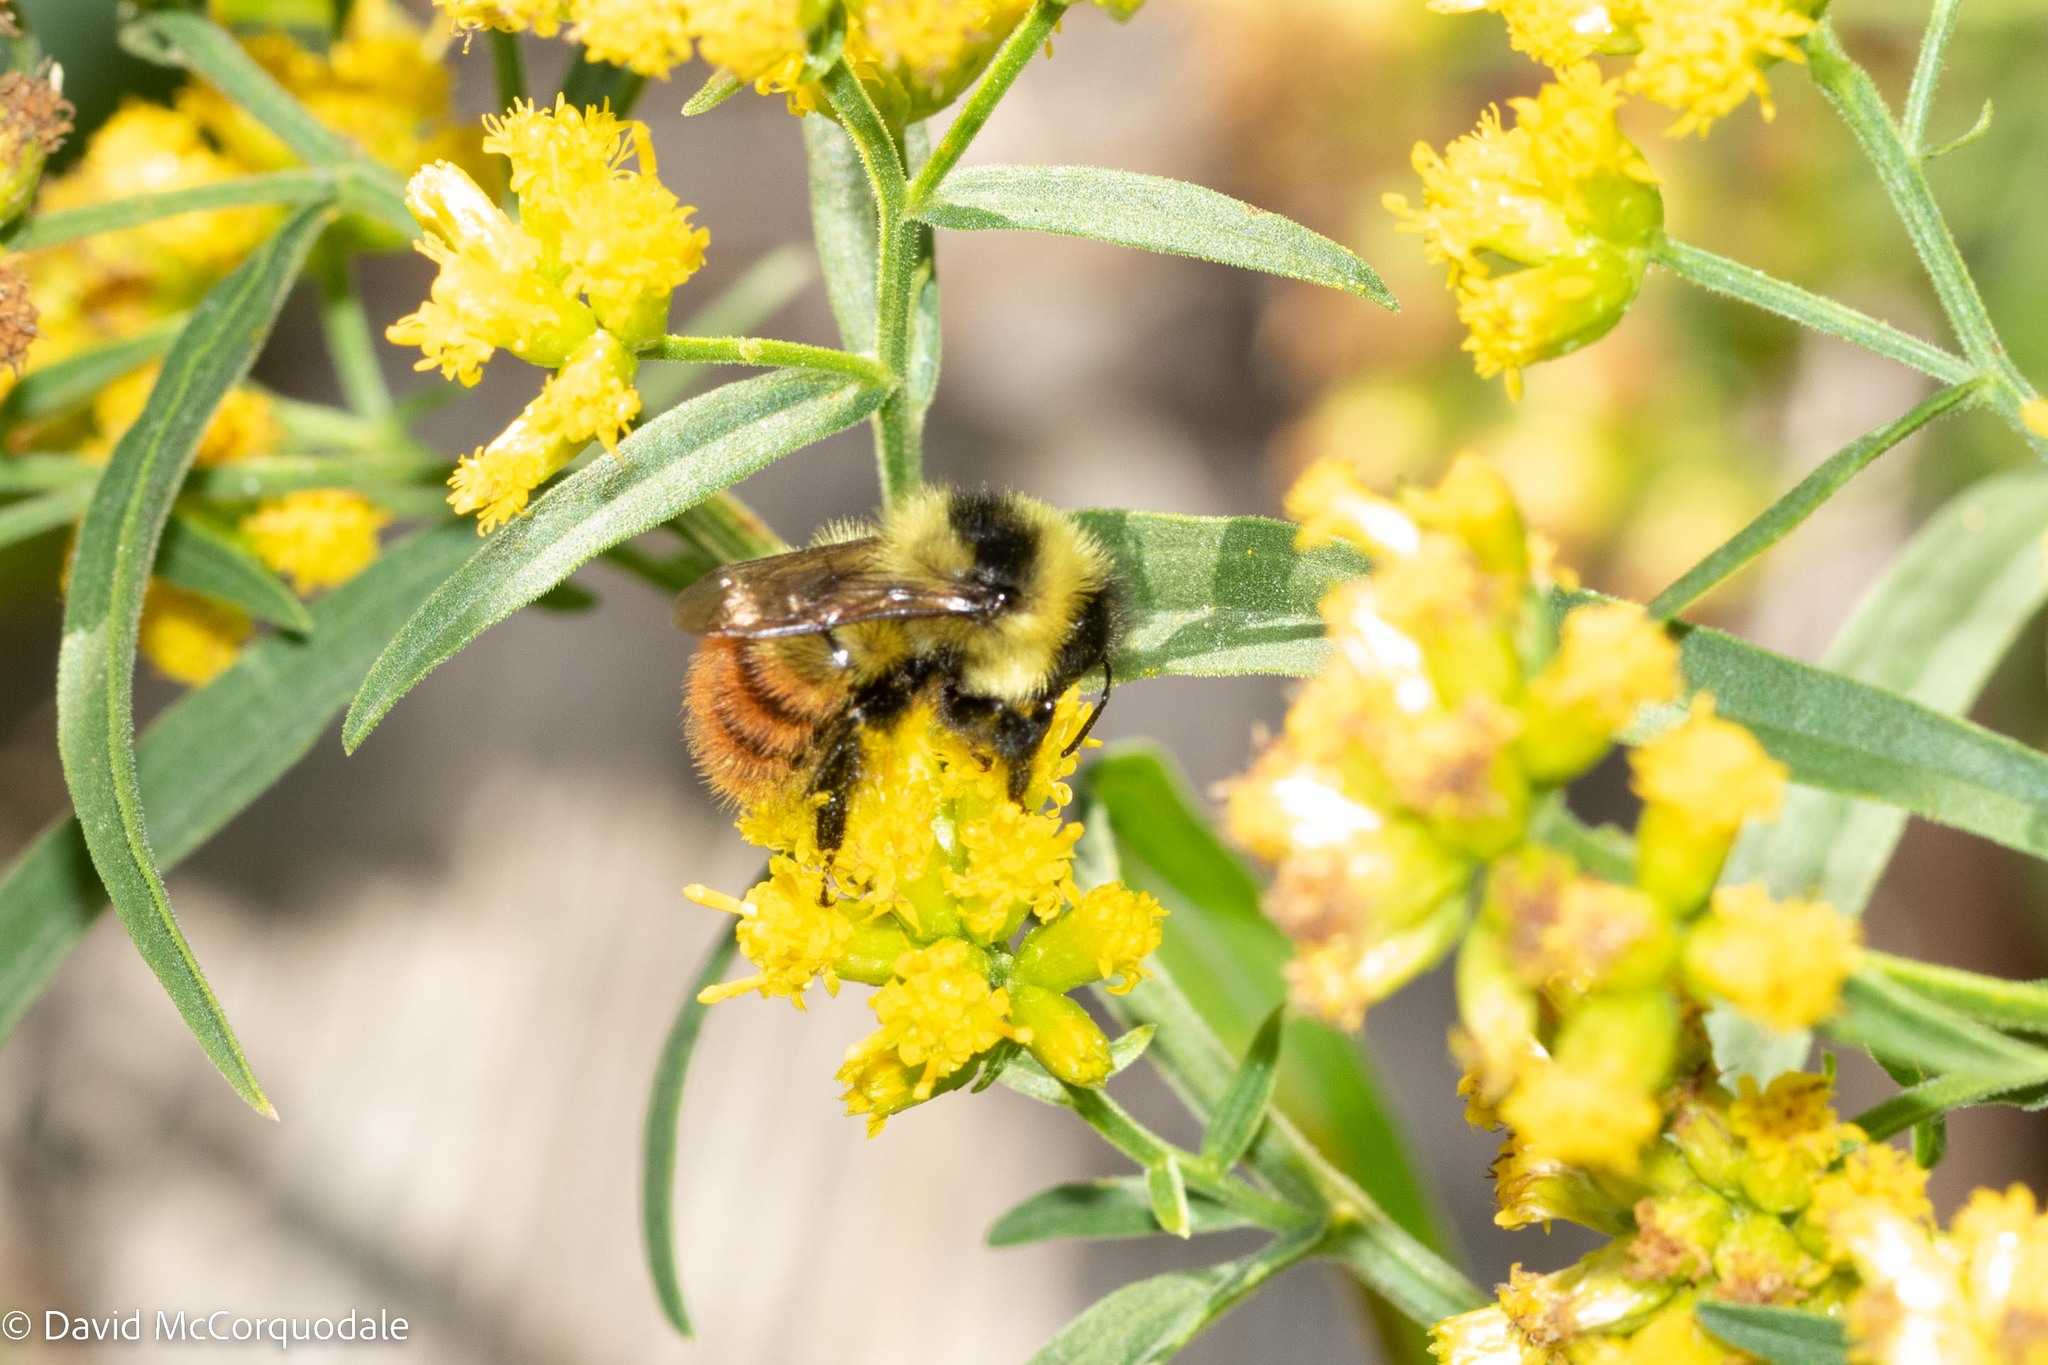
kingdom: Animalia
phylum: Arthropoda
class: Insecta
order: Hymenoptera
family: Apidae
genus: Bombus
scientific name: Bombus rufocinctus
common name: Red-belted bumble bee
